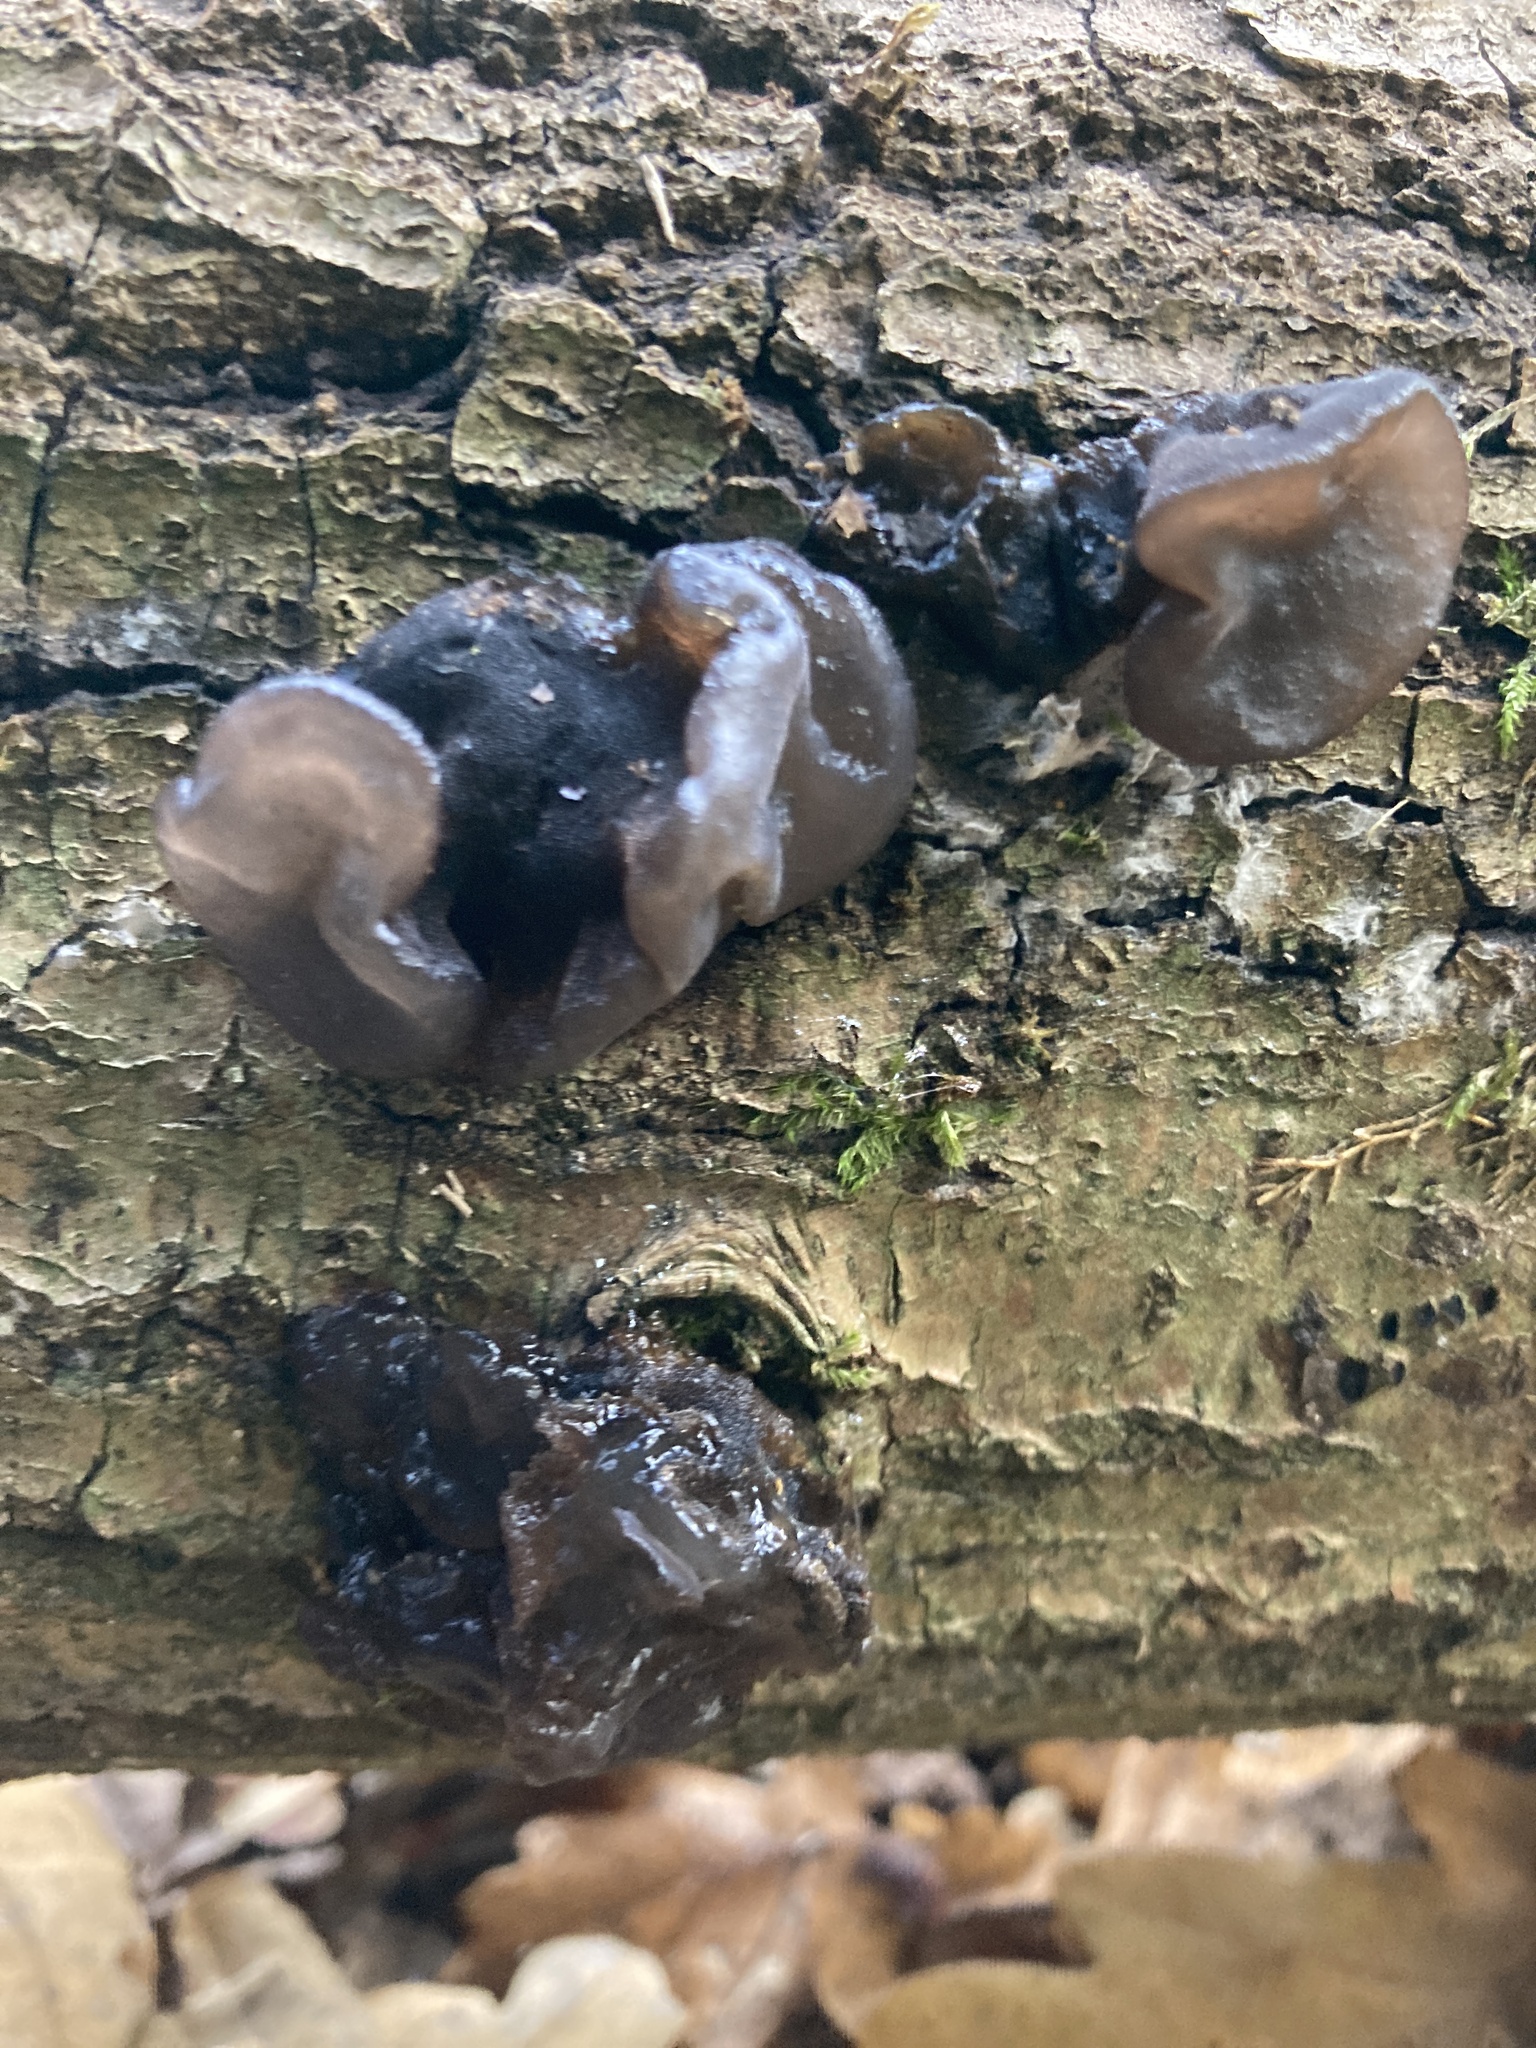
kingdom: Fungi
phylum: Basidiomycota
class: Agaricomycetes
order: Auriculariales
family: Auriculariaceae
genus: Exidia
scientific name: Exidia glandulosa
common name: Witches' butter
